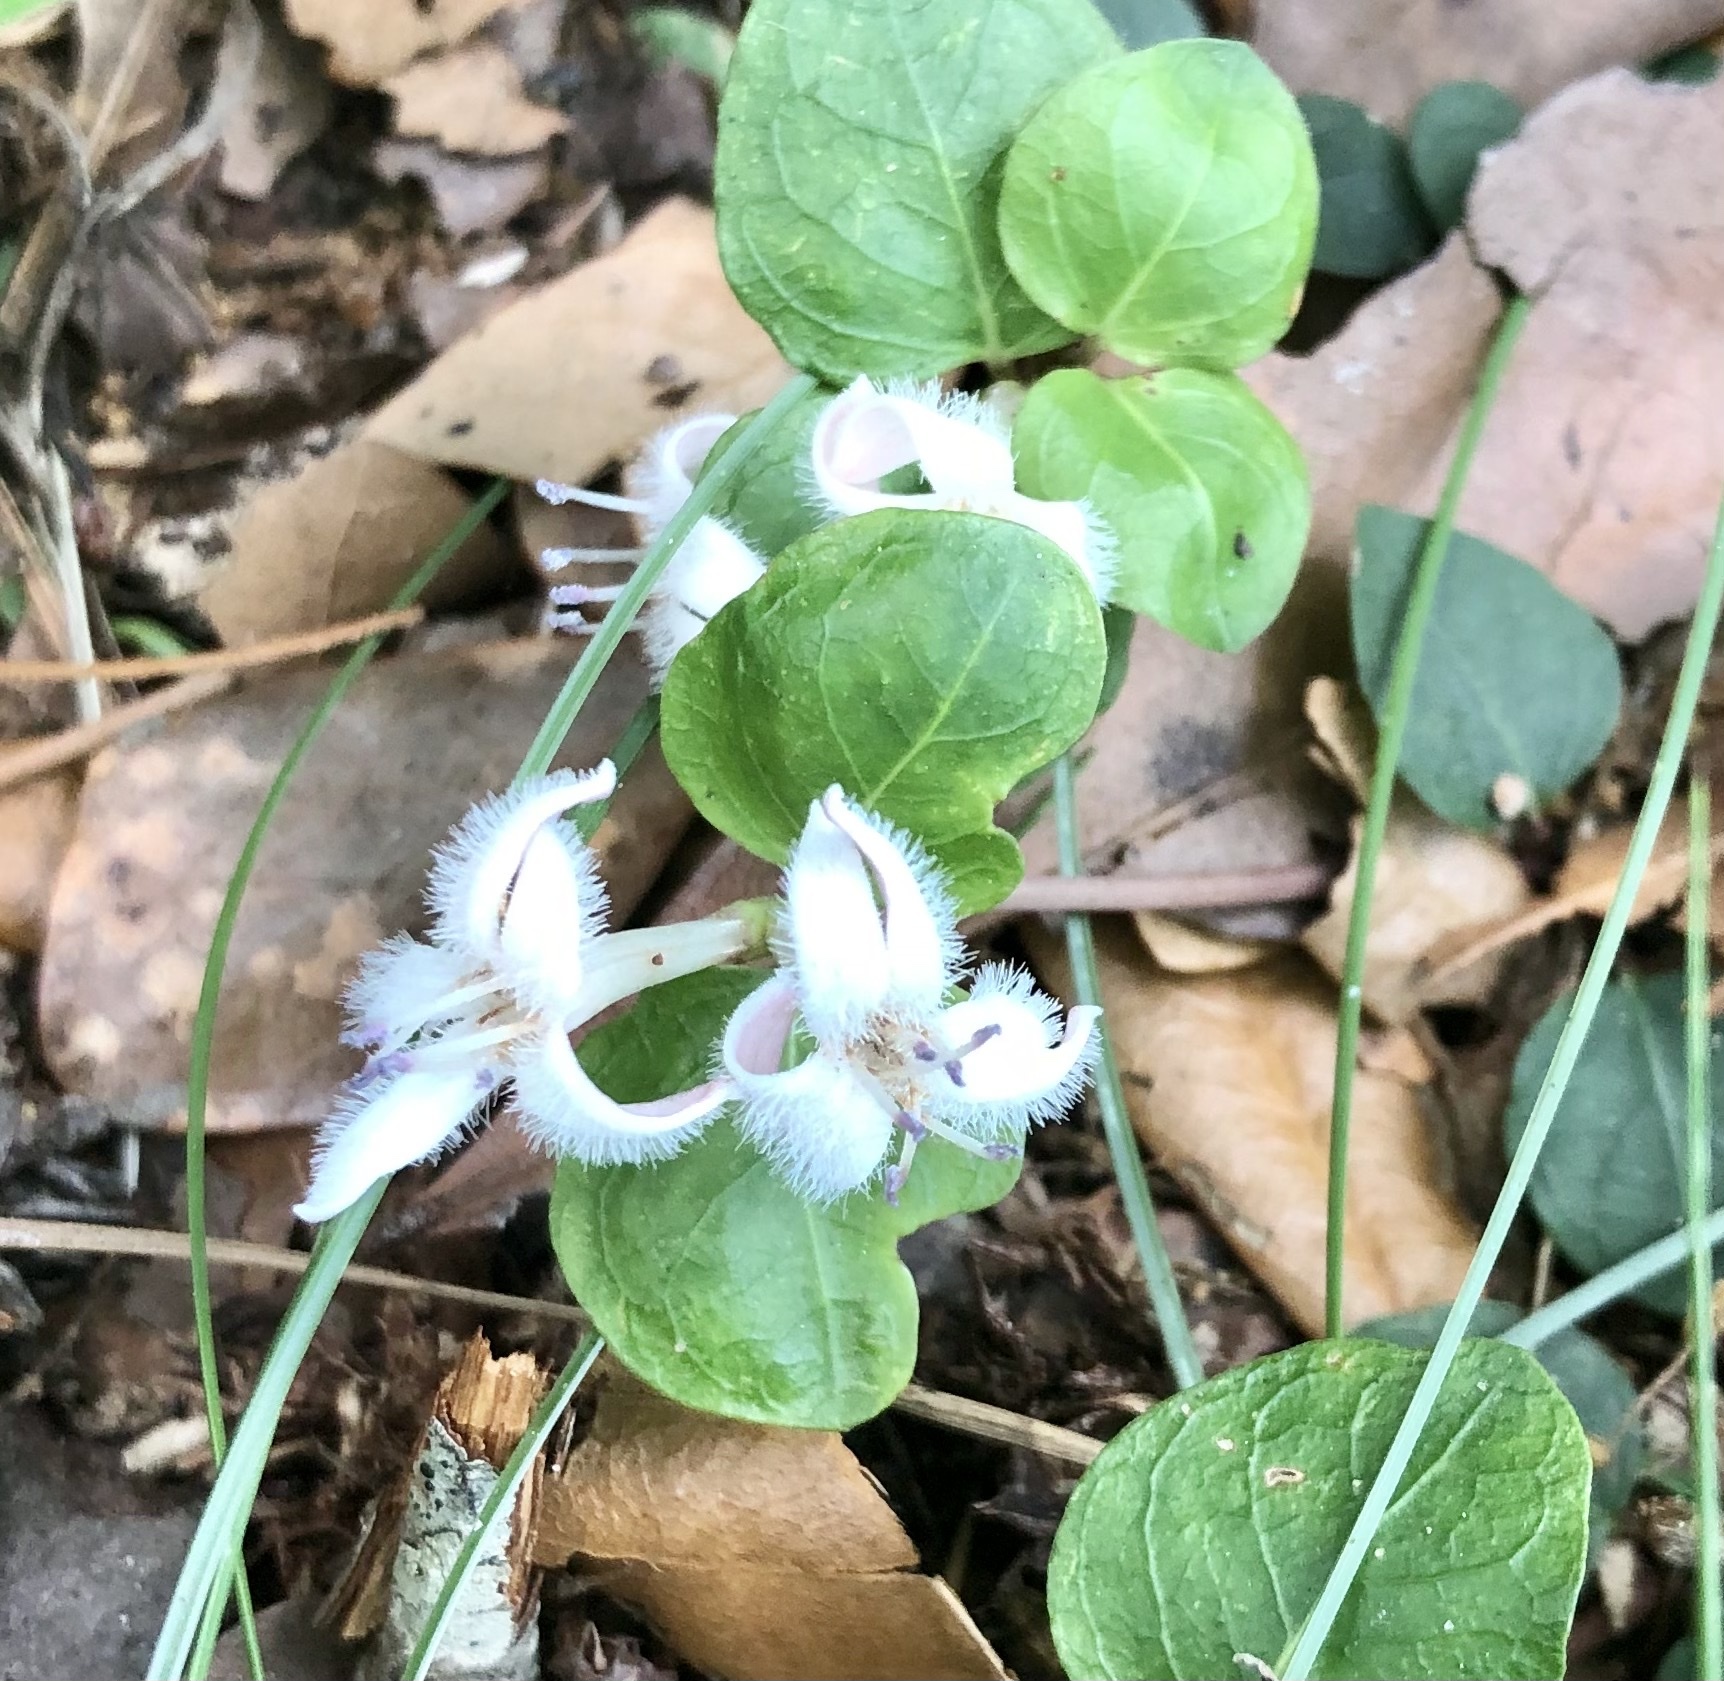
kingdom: Plantae
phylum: Tracheophyta
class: Magnoliopsida
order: Gentianales
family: Rubiaceae
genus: Mitchella
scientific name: Mitchella repens
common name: Partridge-berry
